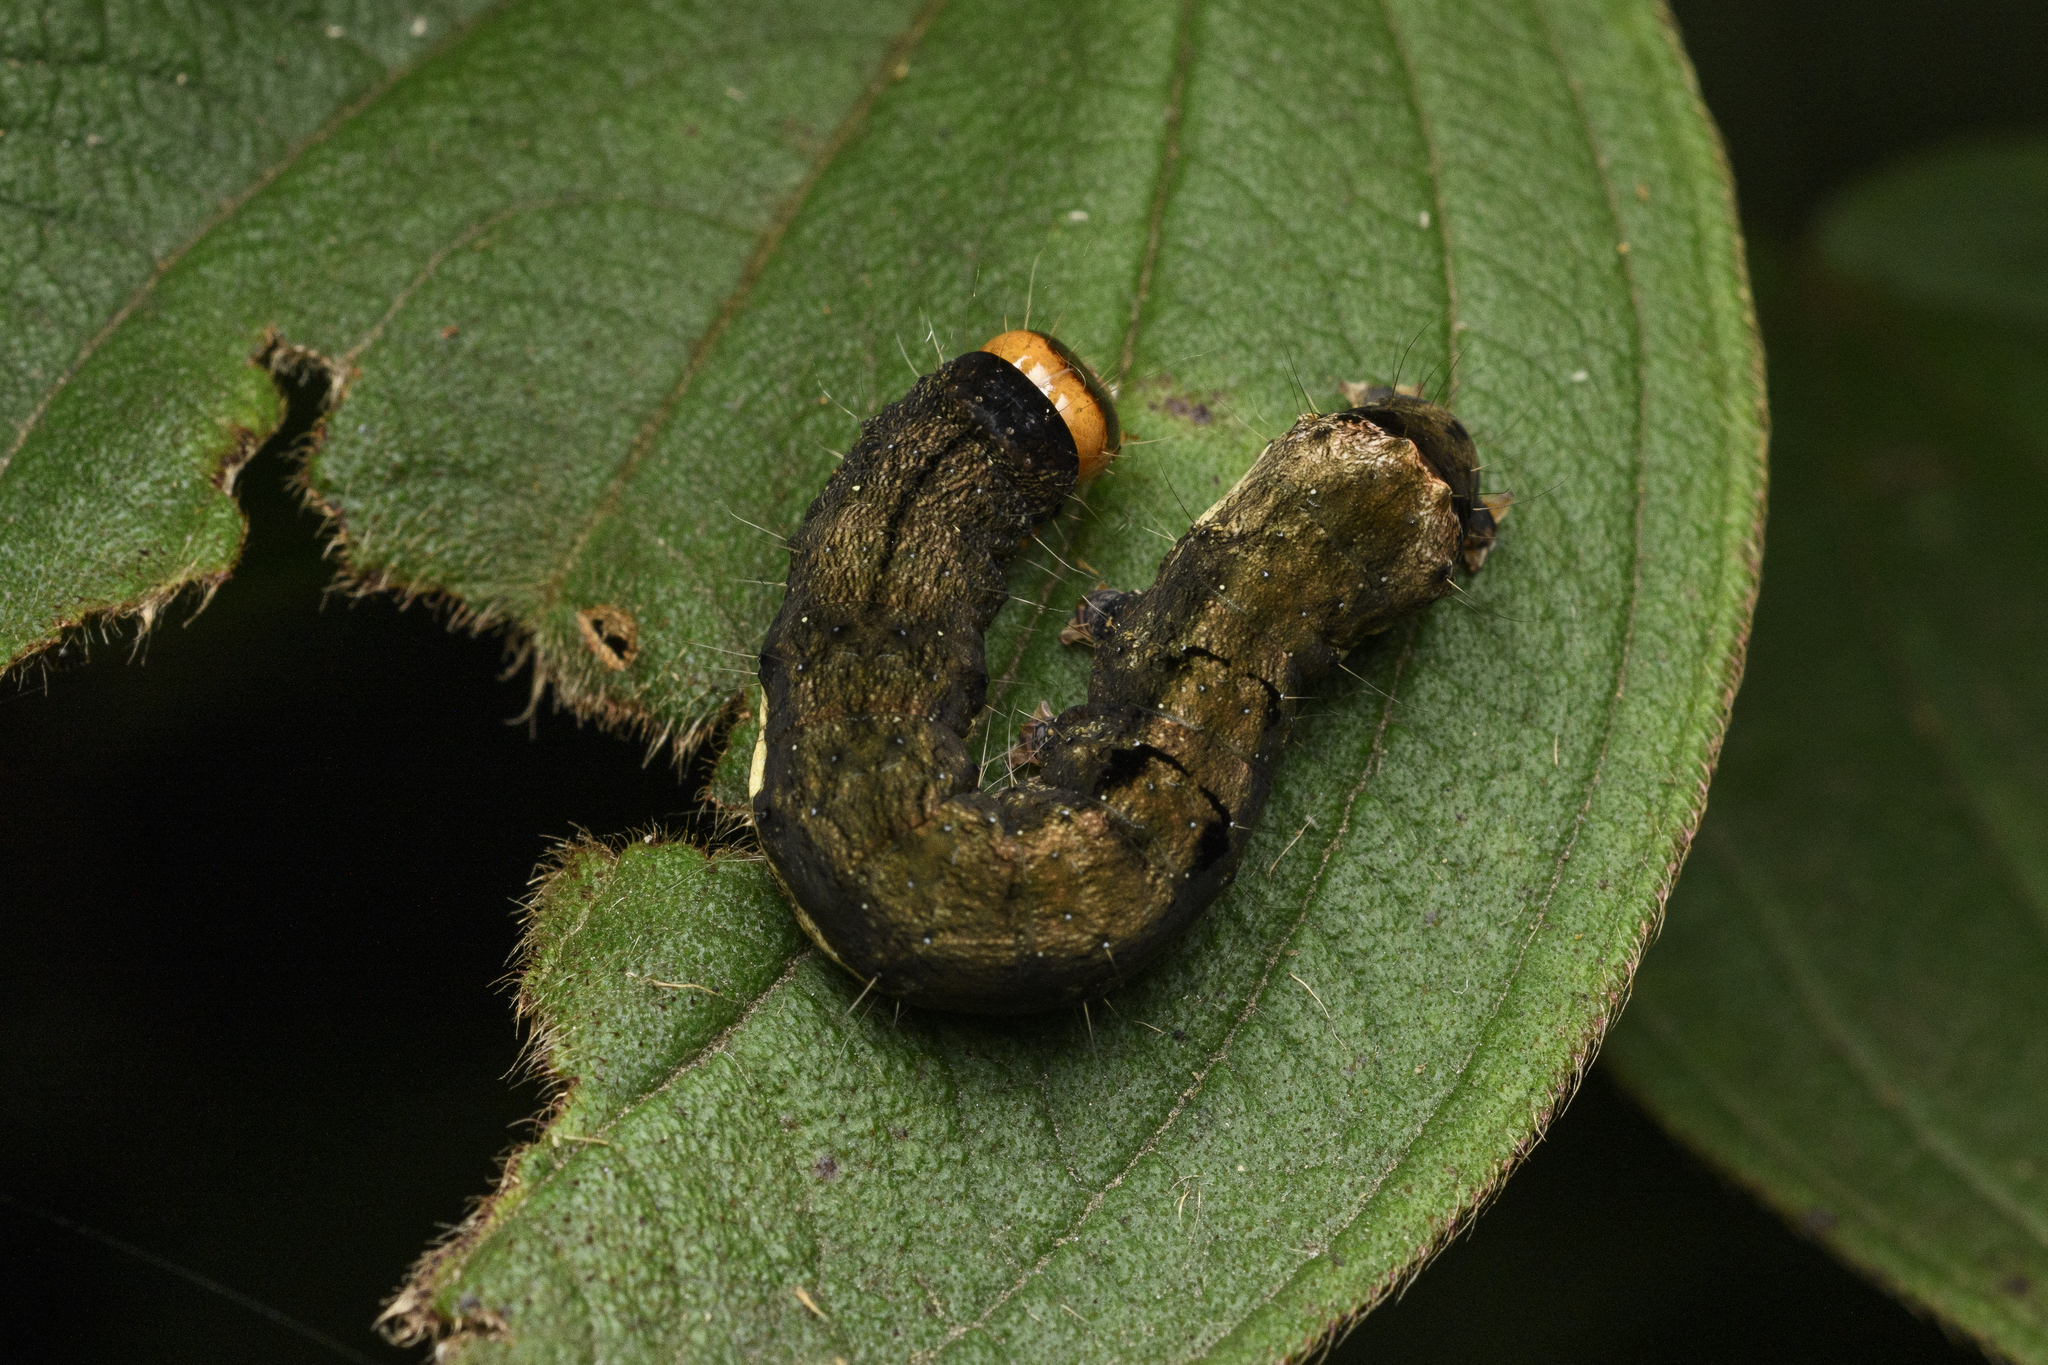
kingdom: Animalia
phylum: Arthropoda
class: Insecta
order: Lepidoptera
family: Noctuidae
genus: Tiracola
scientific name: Tiracola aureata
